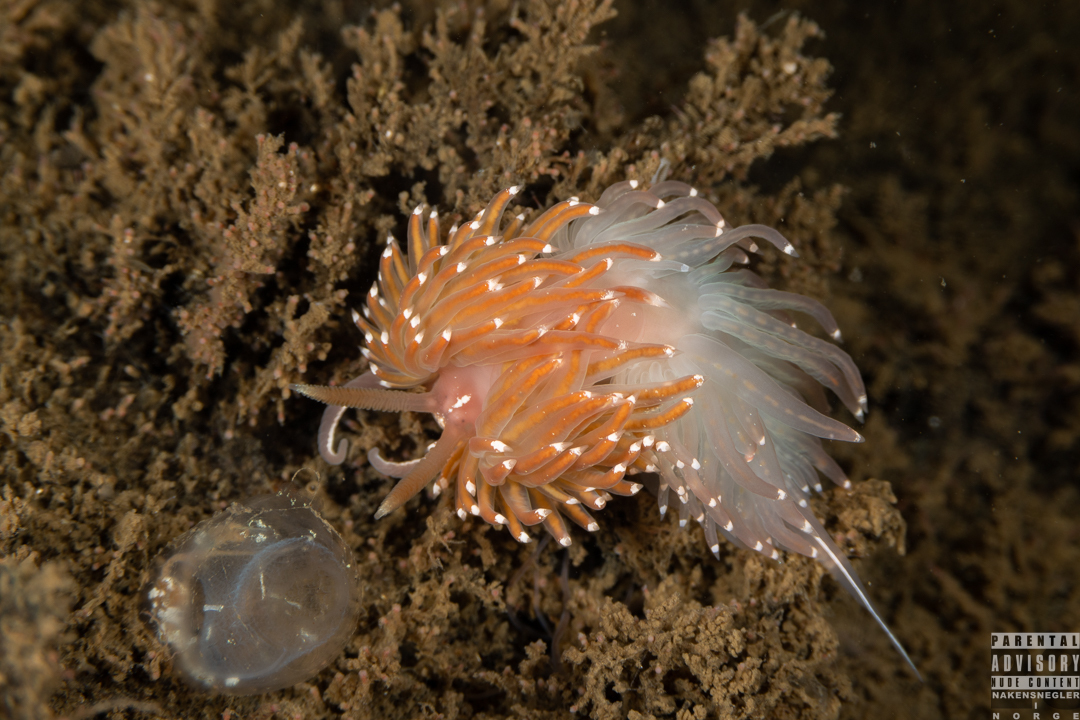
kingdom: Animalia
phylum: Mollusca
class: Gastropoda
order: Nudibranchia
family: Facelinidae
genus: Facelina
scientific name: Facelina bostoniensis
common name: Boston facelina
